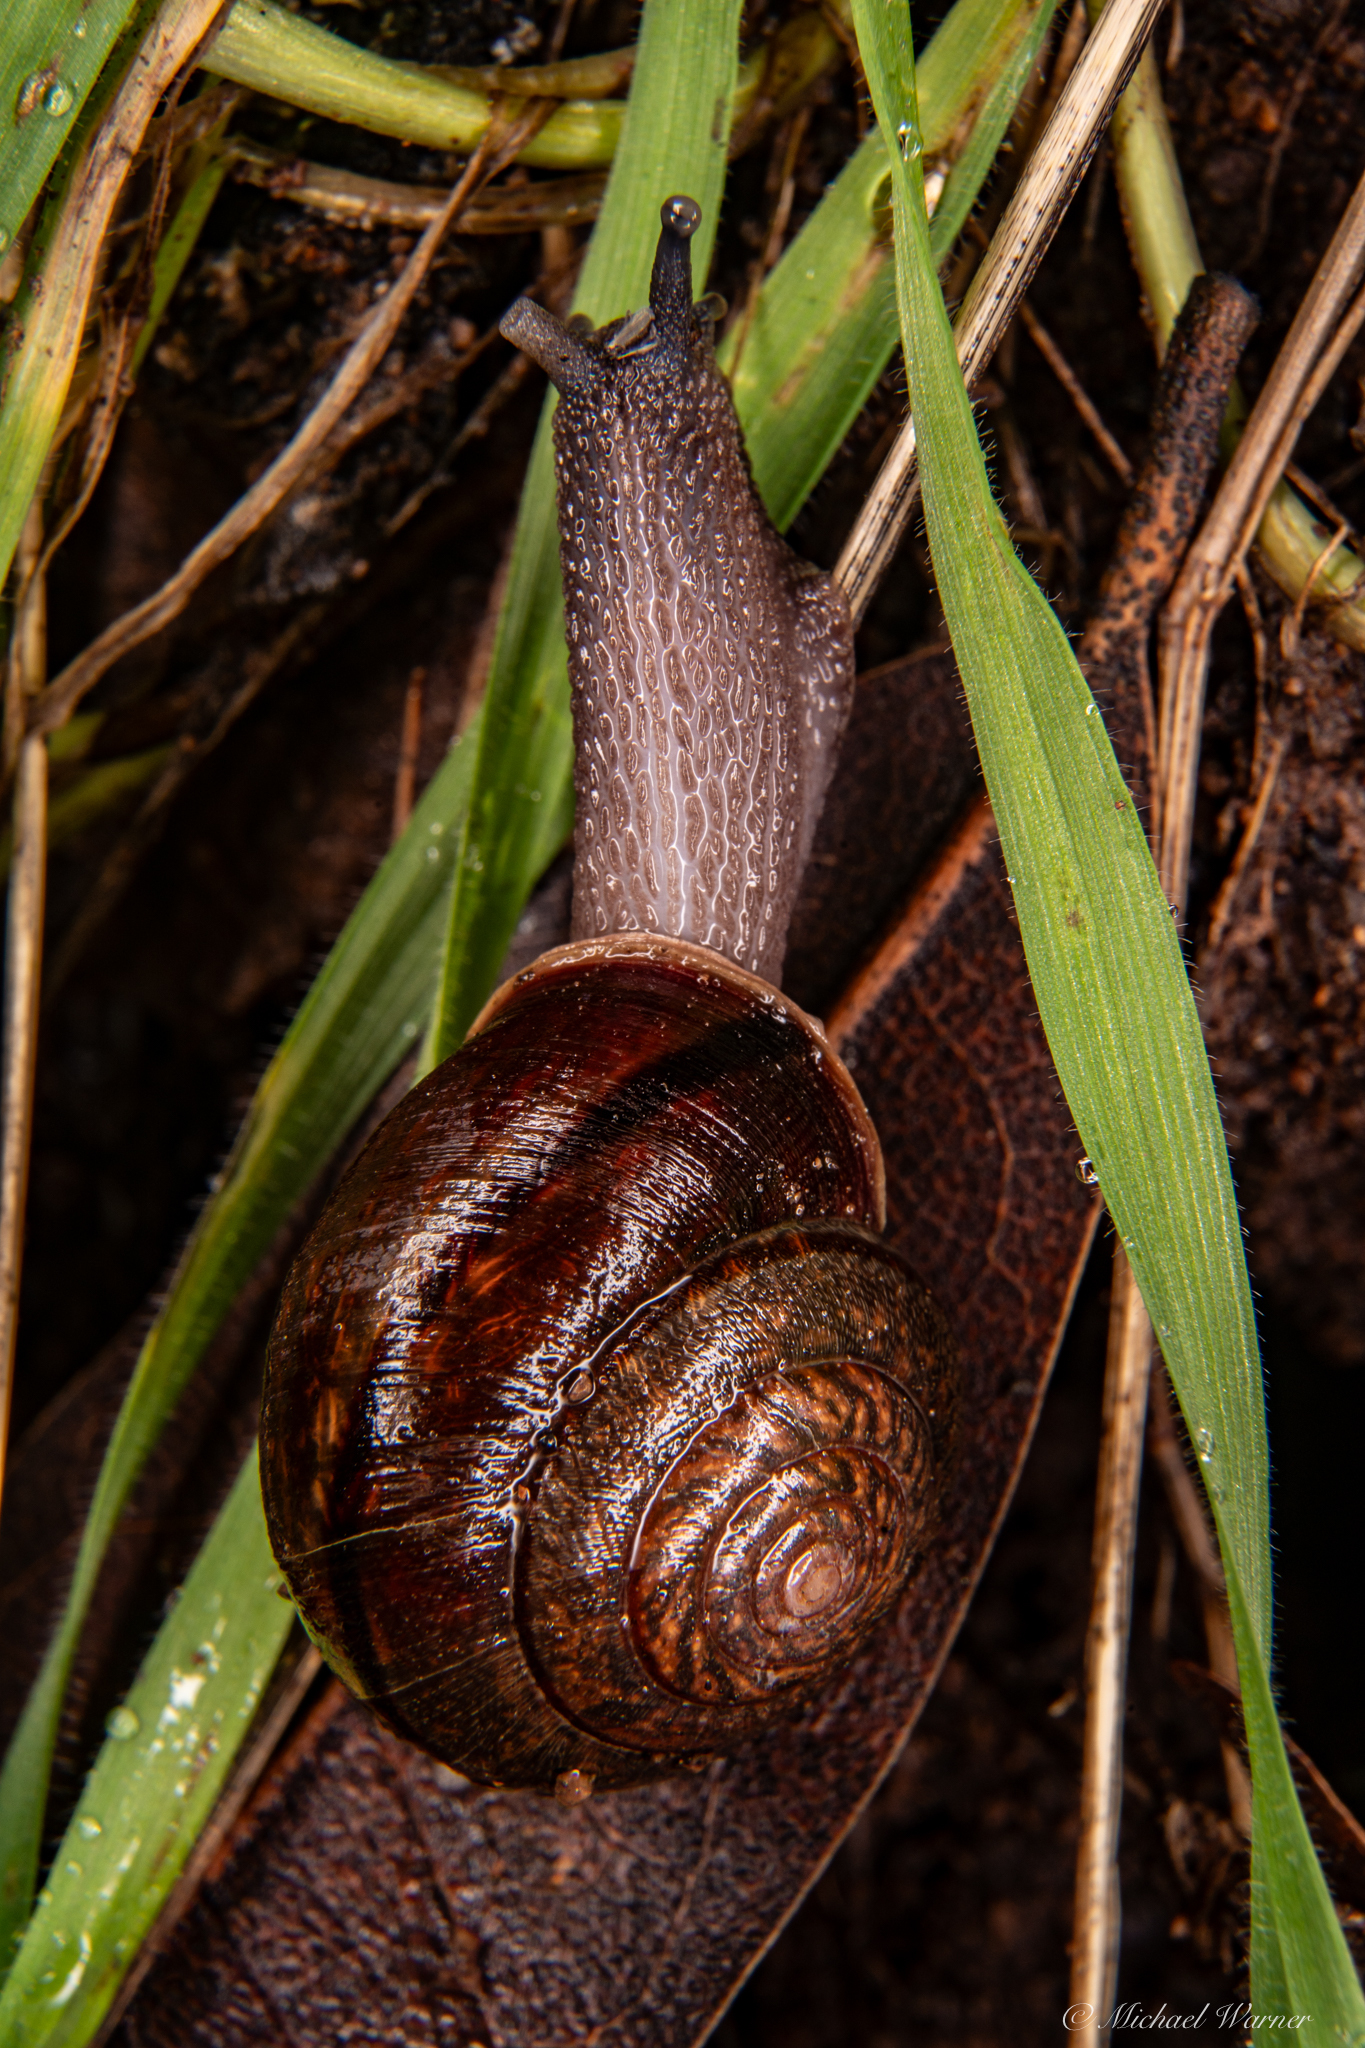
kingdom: Animalia
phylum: Mollusca
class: Gastropoda
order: Stylommatophora
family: Xanthonychidae
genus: Helminthoglypta
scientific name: Helminthoglypta diabloensis
